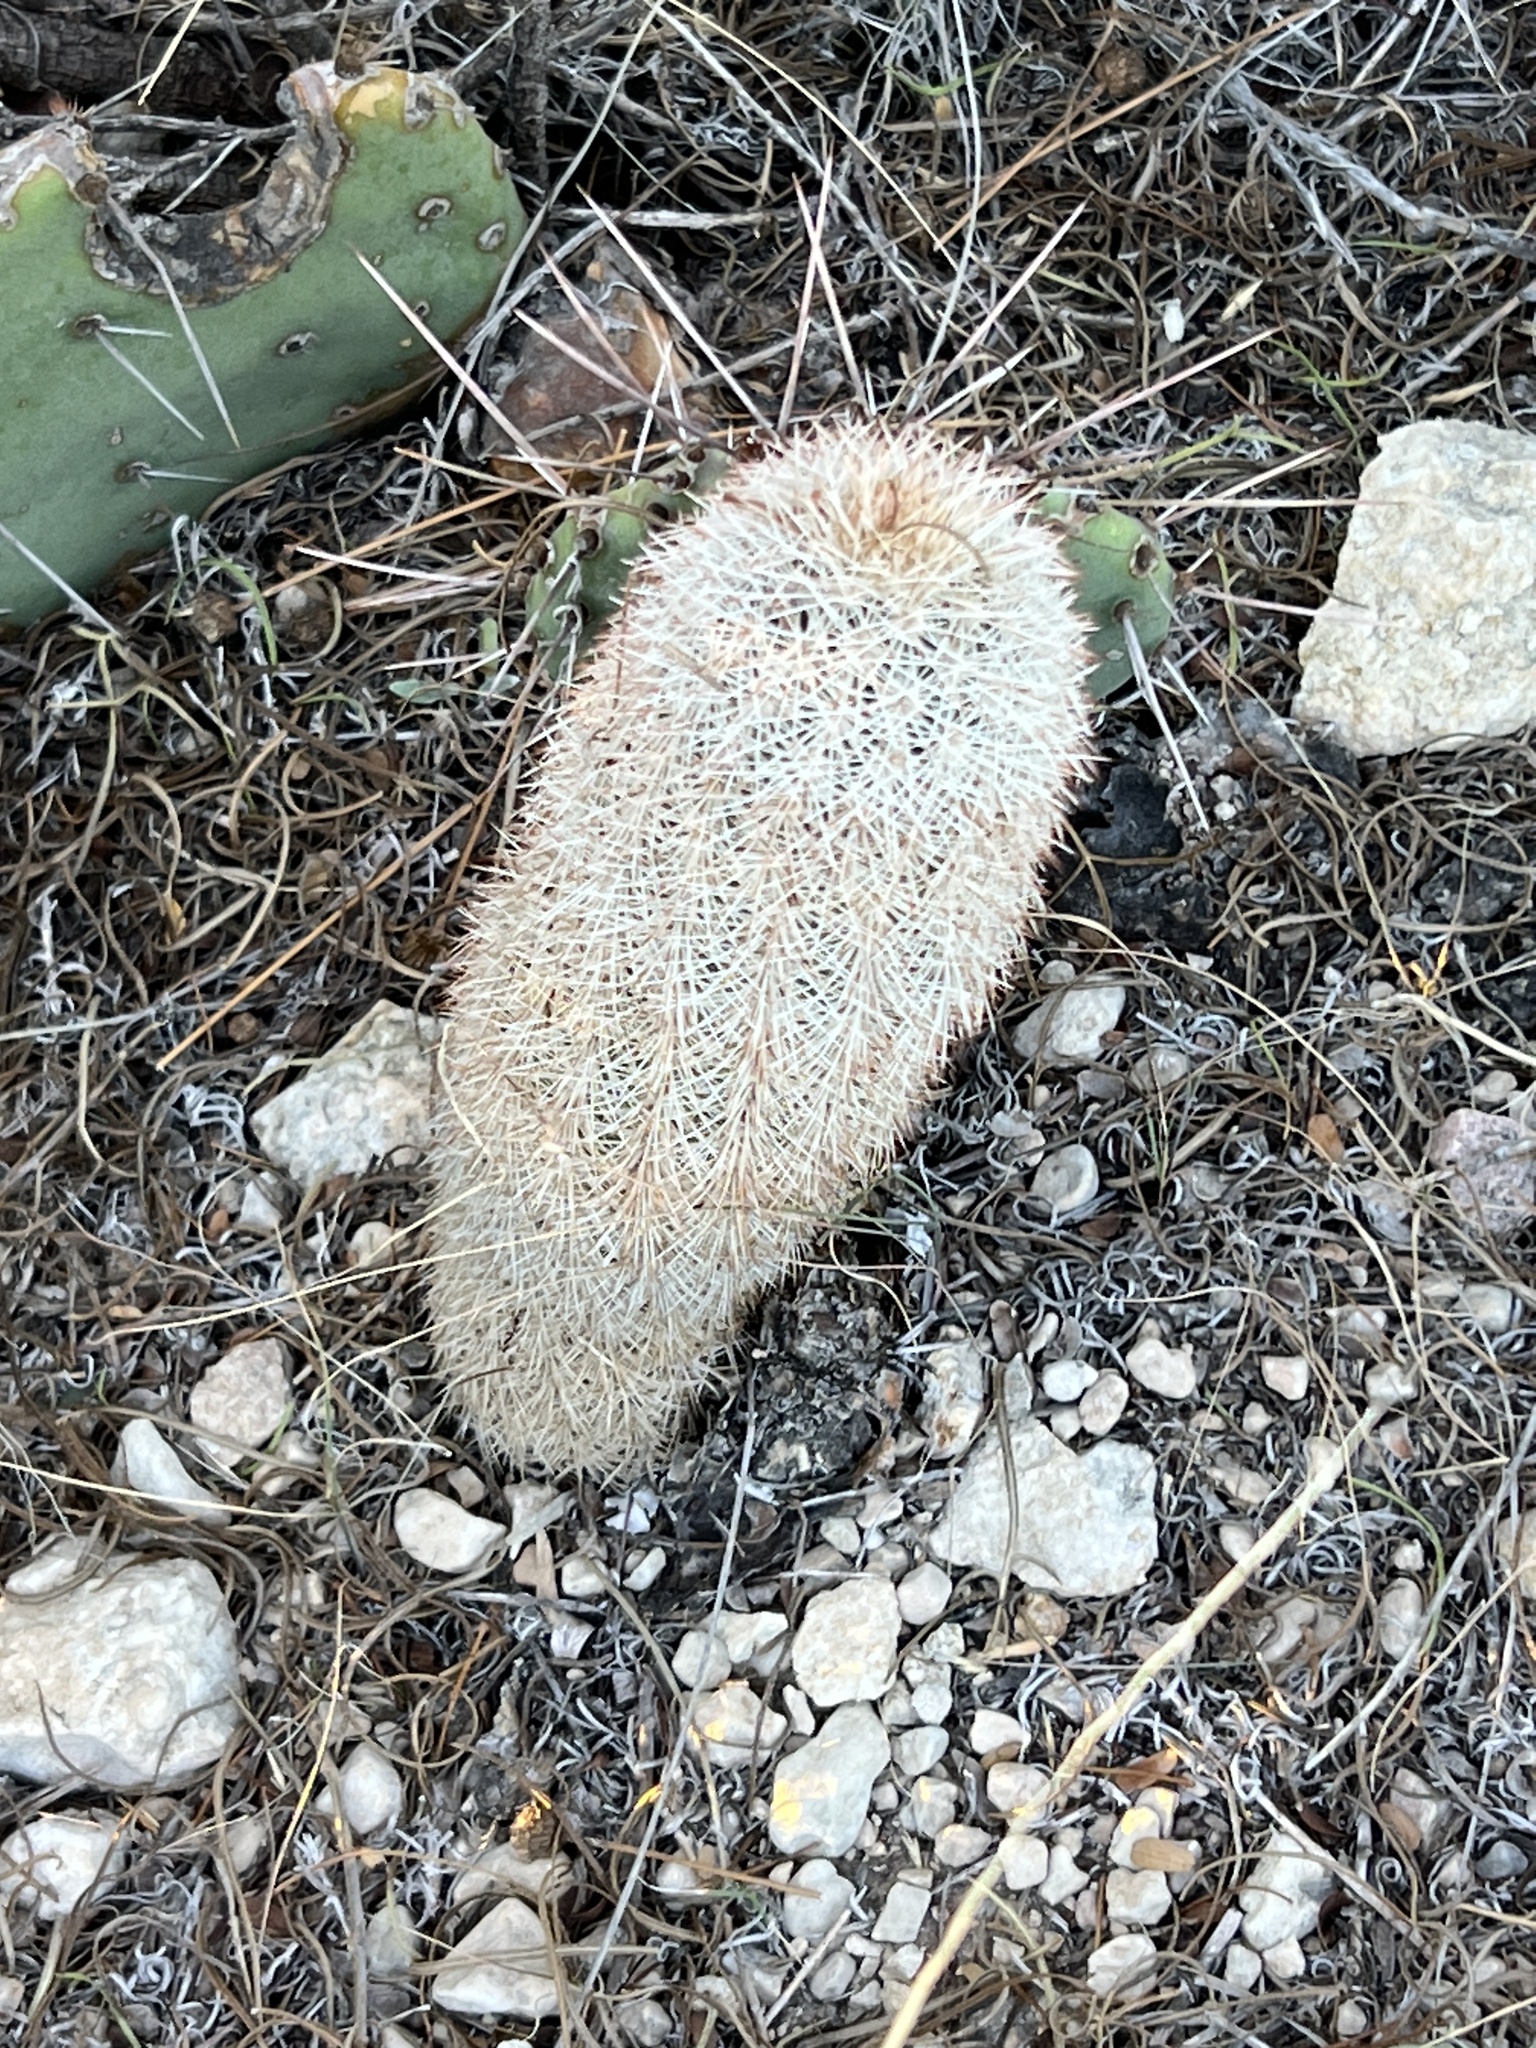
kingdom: Plantae
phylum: Tracheophyta
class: Magnoliopsida
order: Caryophyllales
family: Cactaceae
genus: Echinocereus
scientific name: Echinocereus dasyacanthus
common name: Spiny hedgehog cactus
